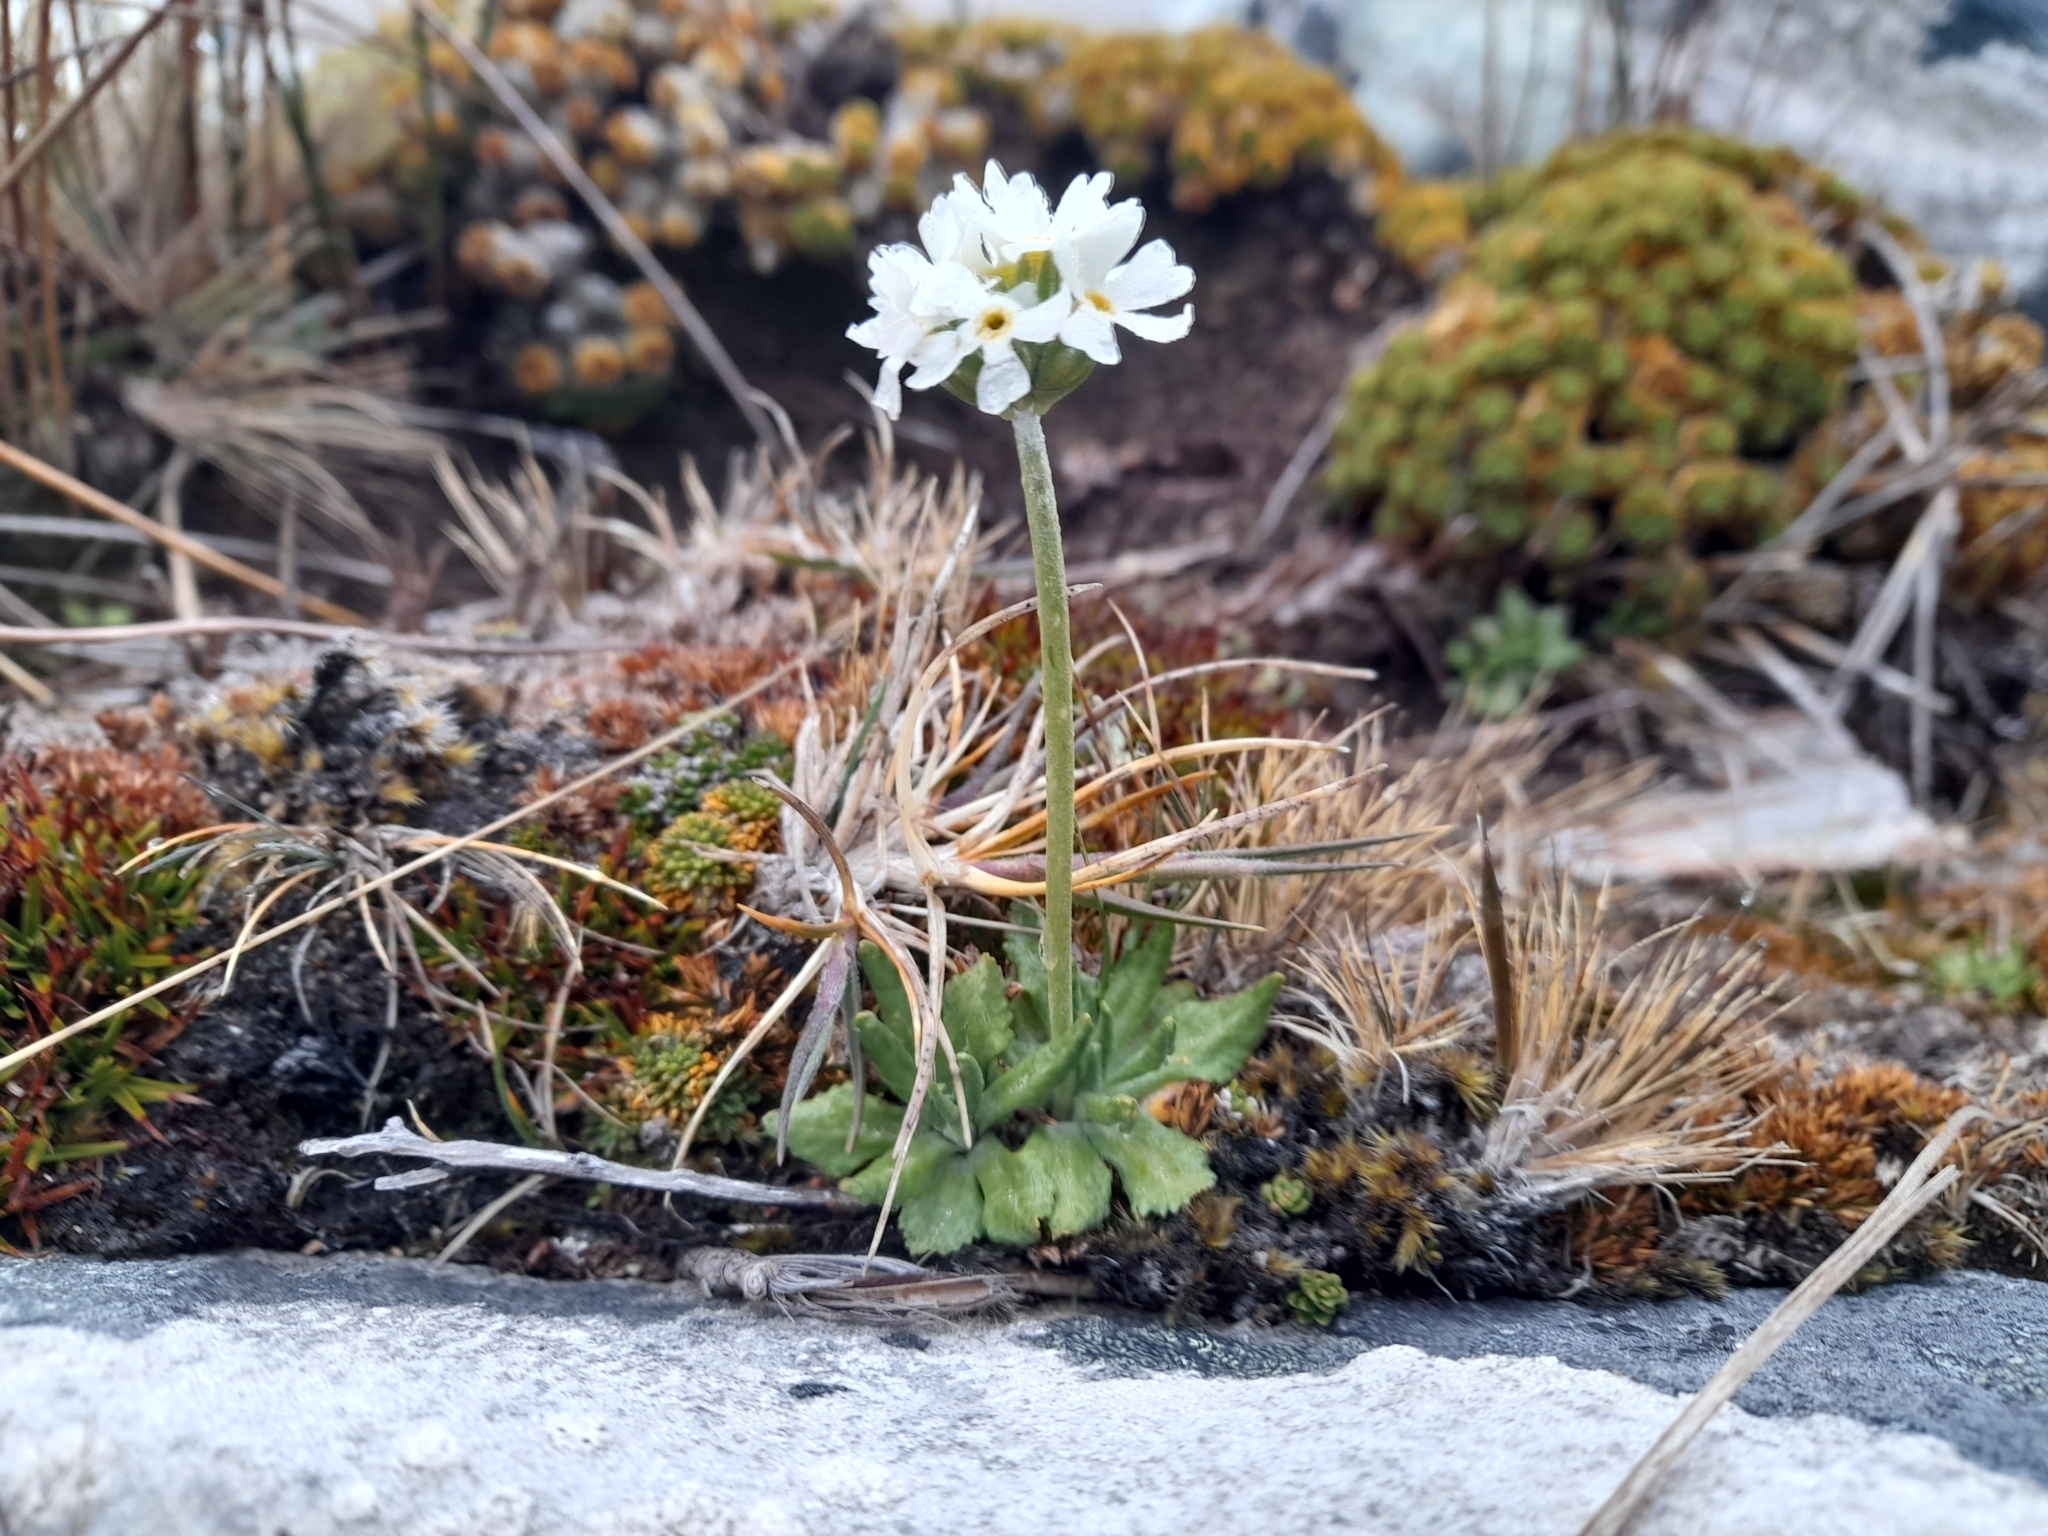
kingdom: Plantae
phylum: Tracheophyta
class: Magnoliopsida
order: Ericales
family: Primulaceae
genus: Primula
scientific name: Primula magellanica
